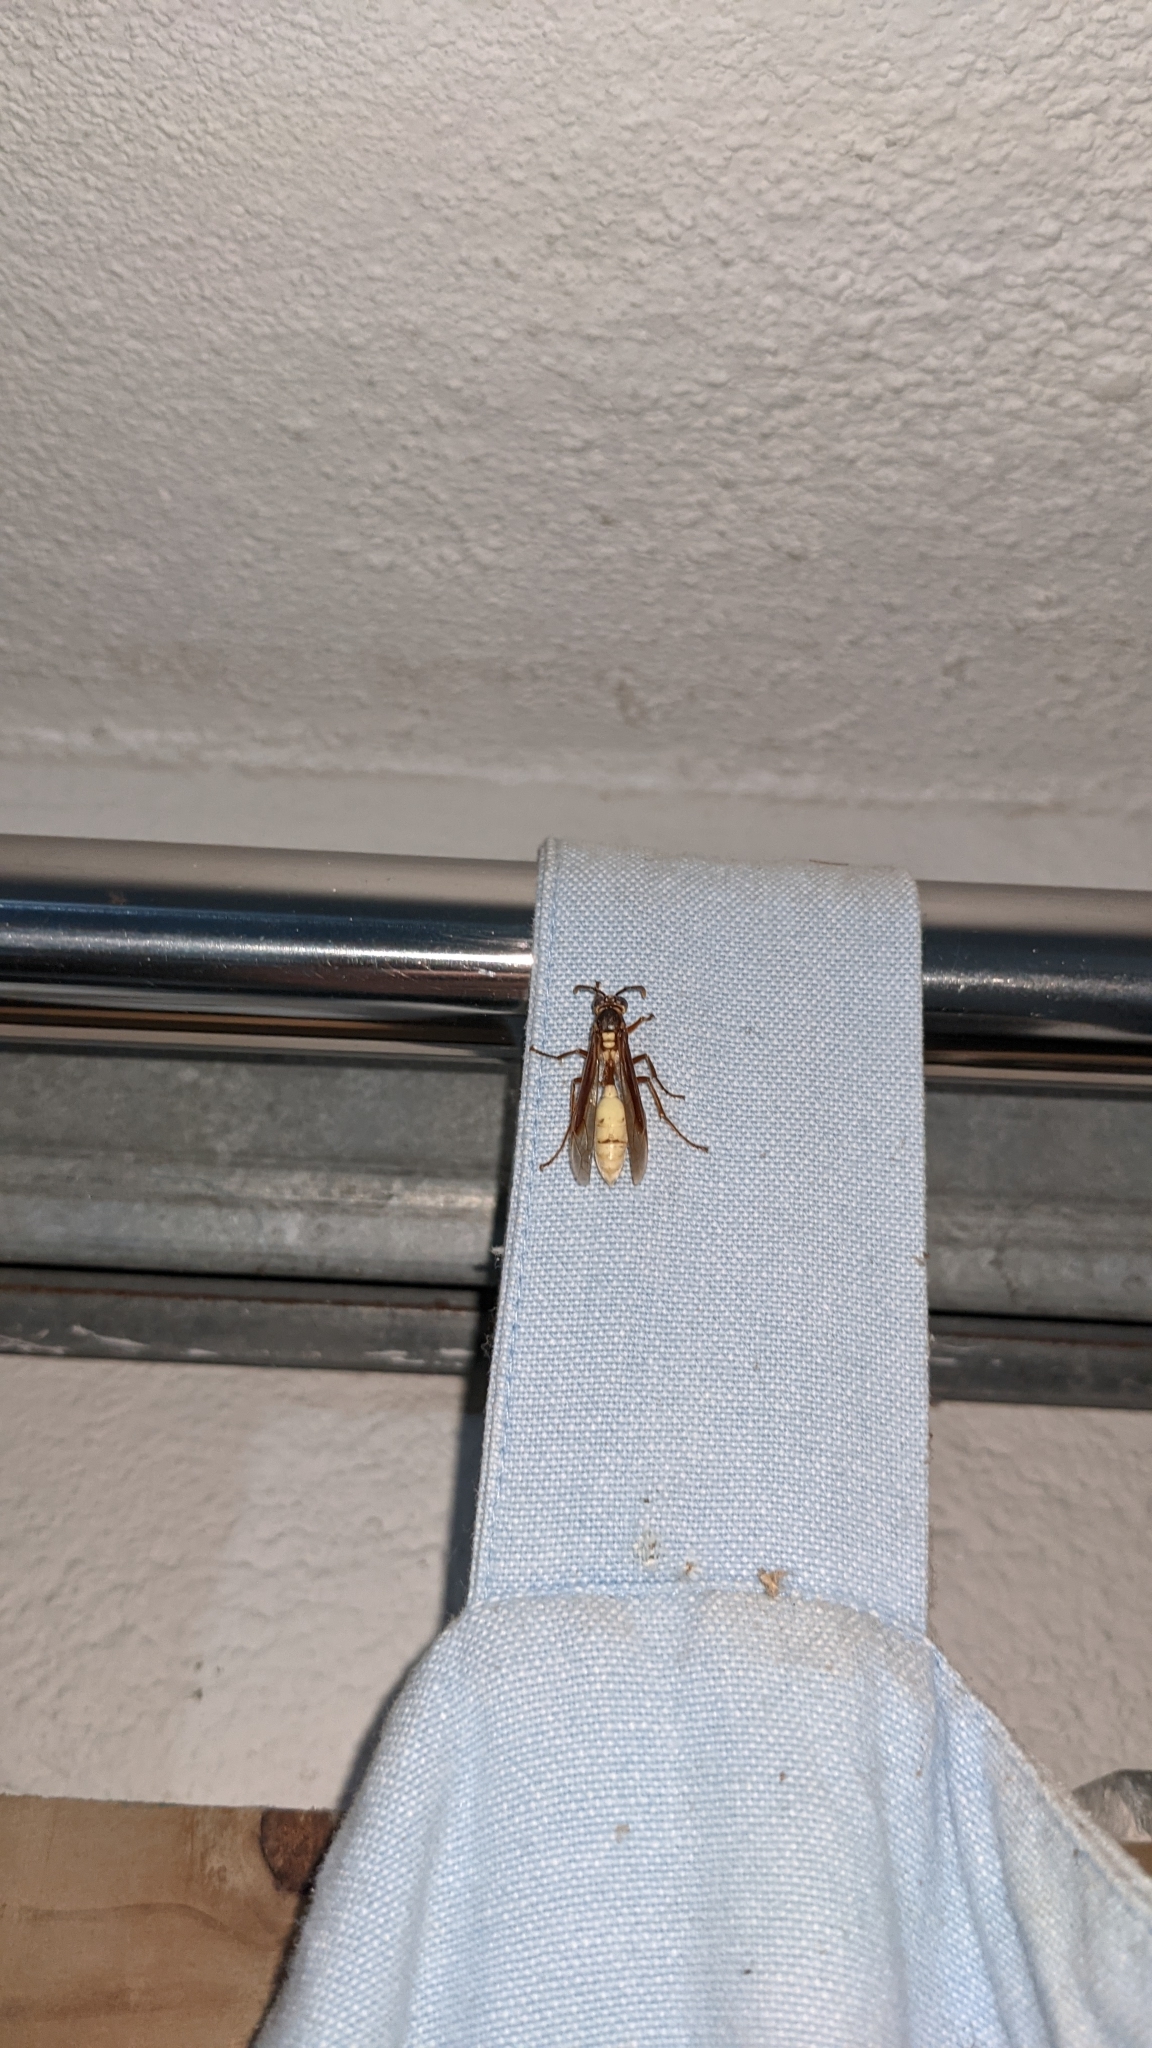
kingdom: Animalia
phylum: Arthropoda
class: Insecta
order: Hymenoptera
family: Vespidae
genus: Apoica
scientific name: Apoica pallens
